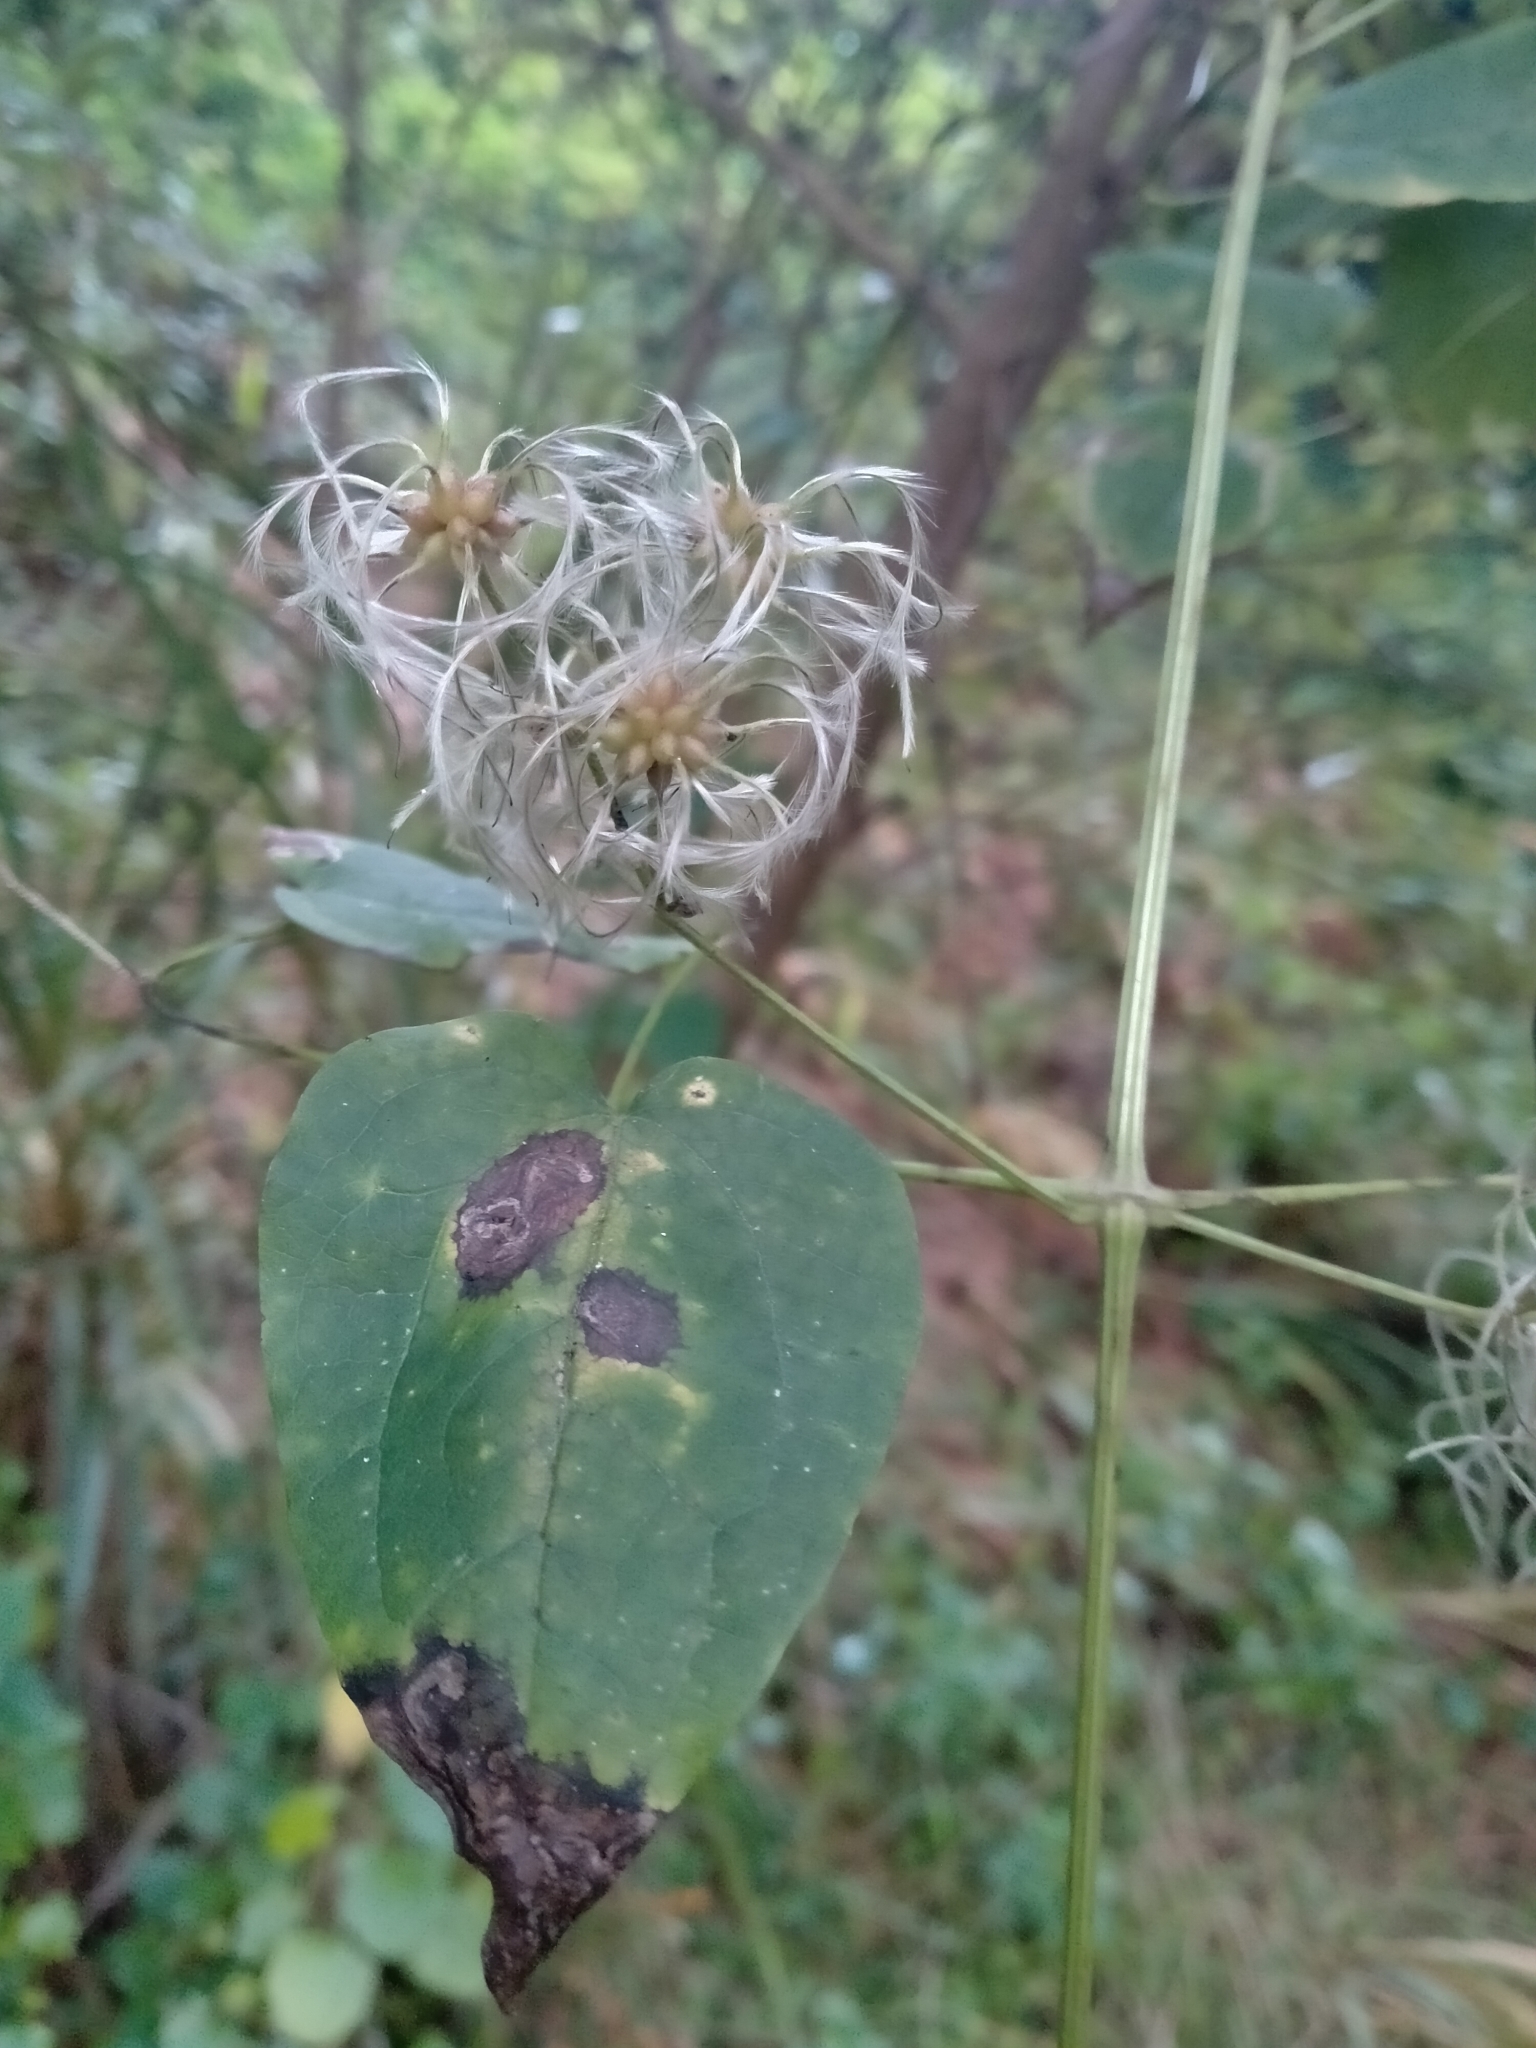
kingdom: Plantae
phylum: Tracheophyta
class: Magnoliopsida
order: Ranunculales
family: Ranunculaceae
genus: Clematis
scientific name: Clematis vitalba
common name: Evergreen clematis
